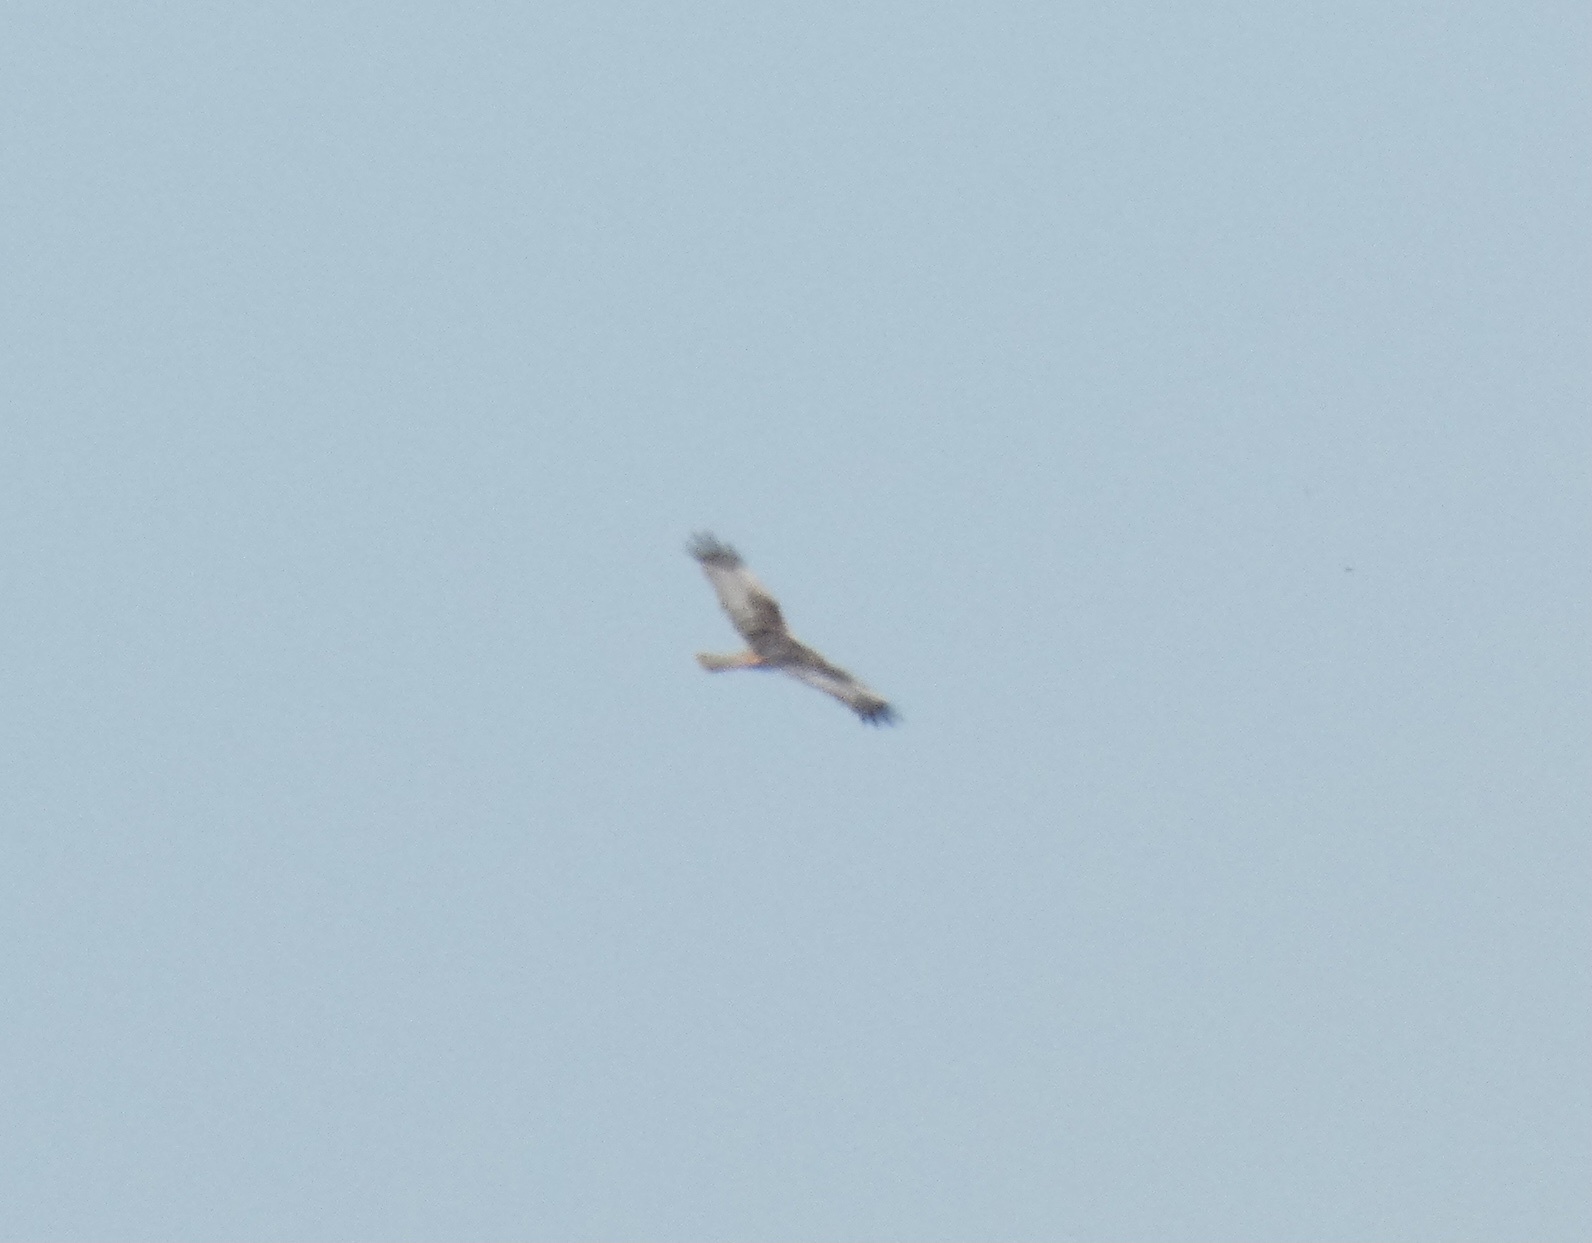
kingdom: Animalia
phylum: Chordata
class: Aves
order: Accipitriformes
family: Accipitridae
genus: Circus
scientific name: Circus aeruginosus
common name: Western marsh harrier
